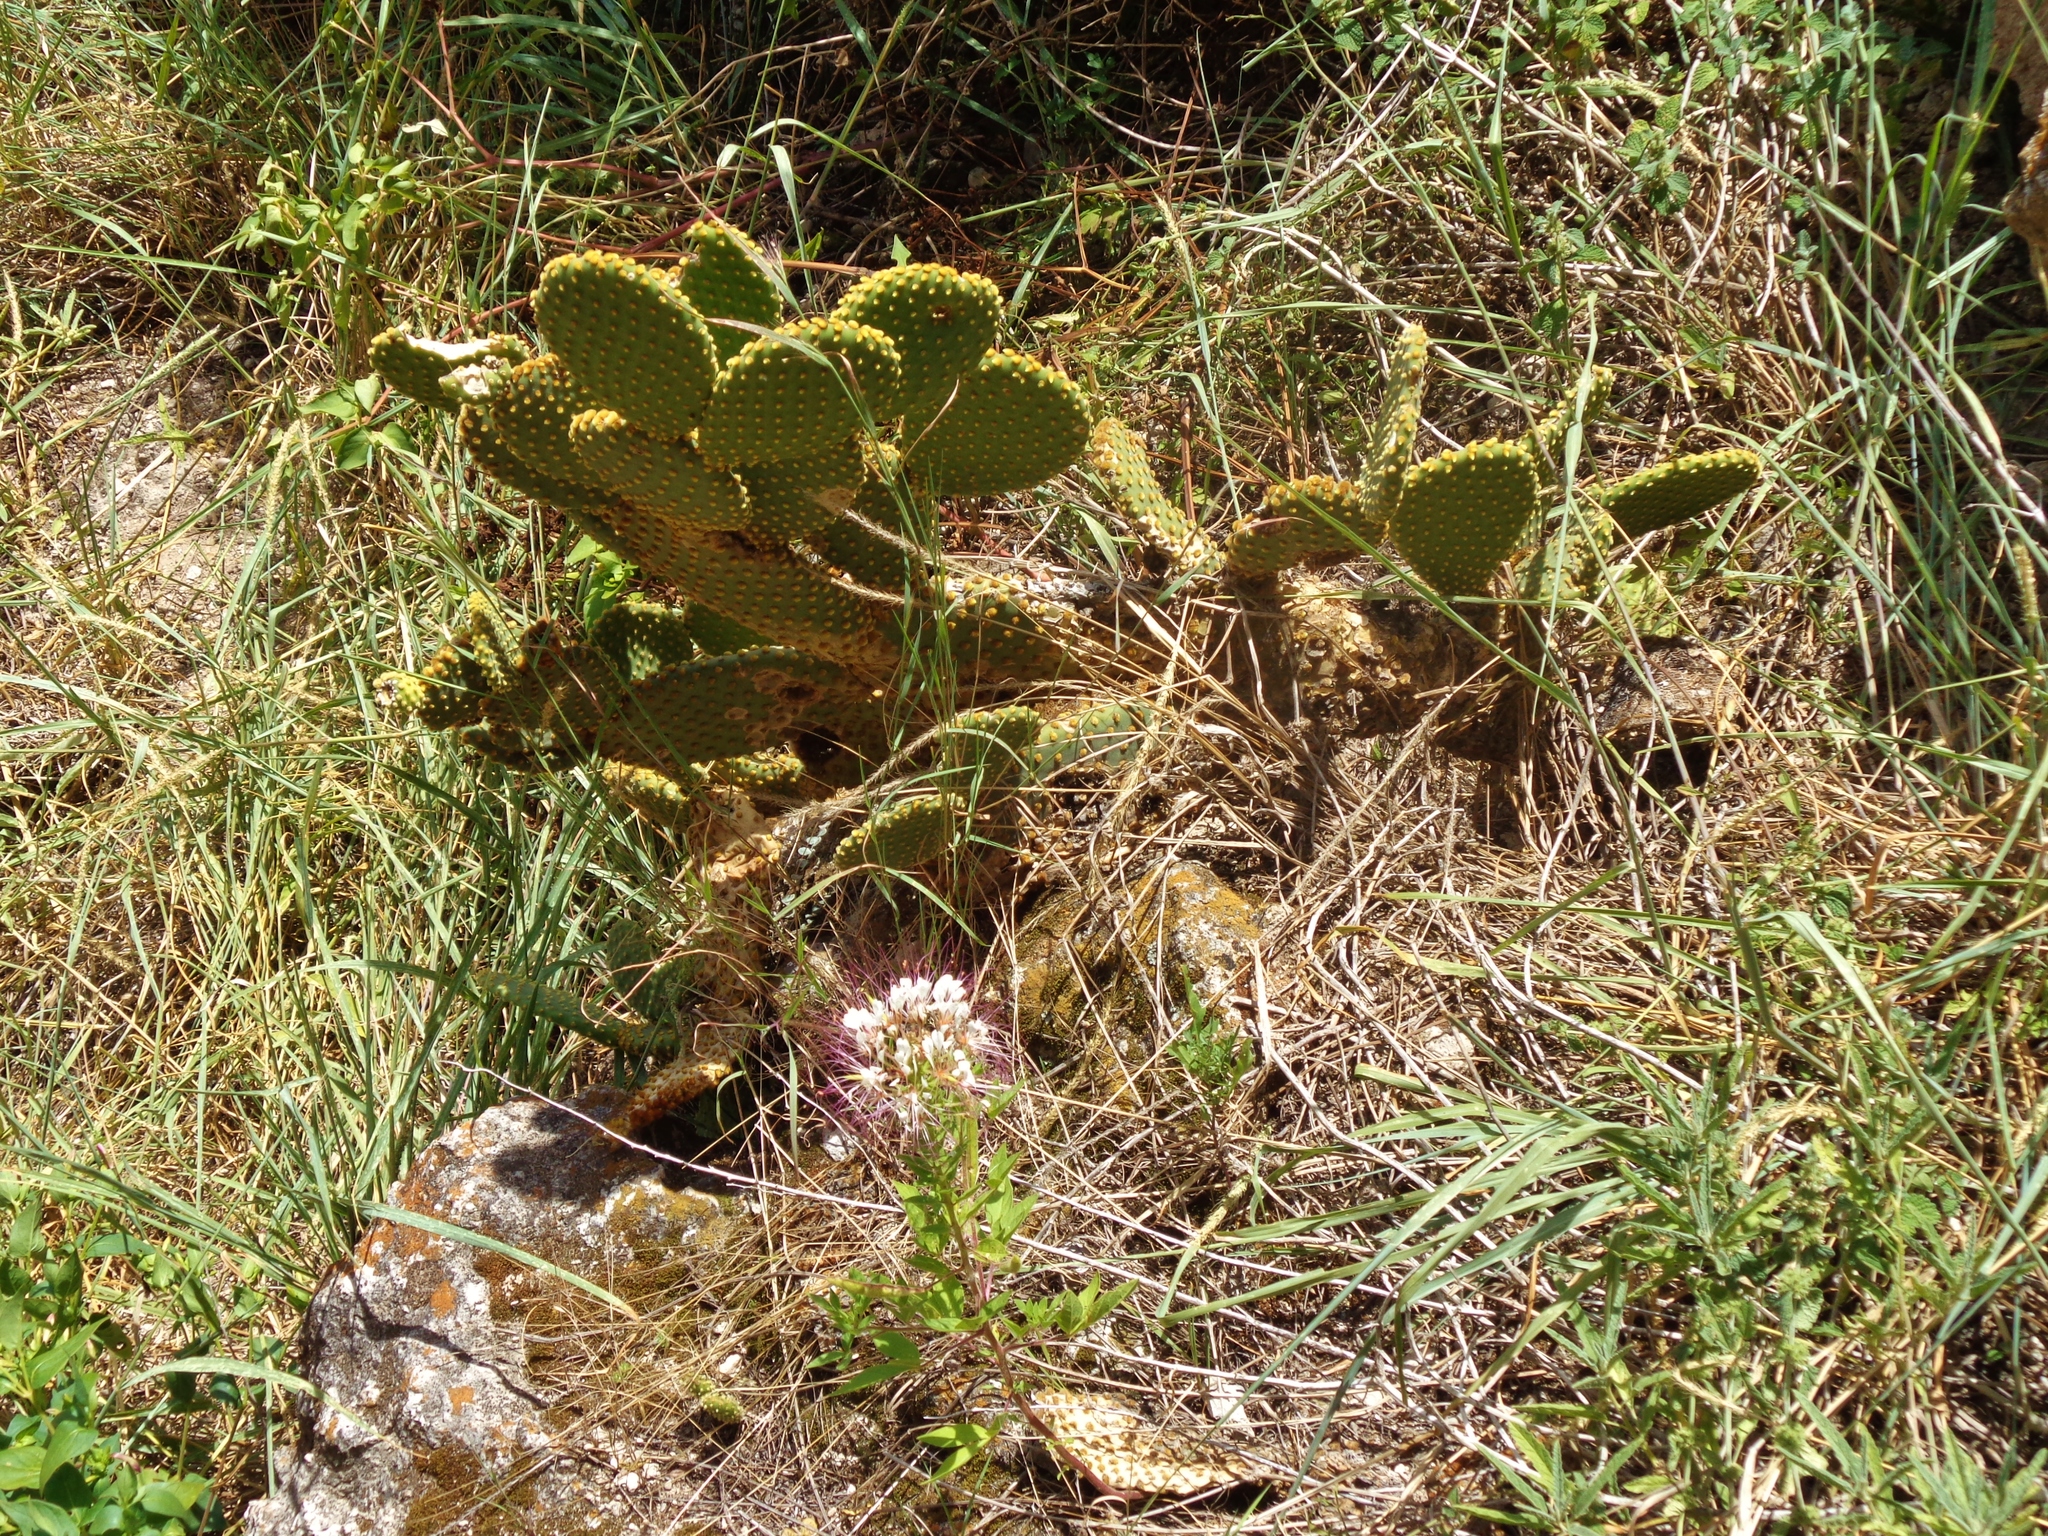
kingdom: Plantae
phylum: Tracheophyta
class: Magnoliopsida
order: Caryophyllales
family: Cactaceae
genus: Opuntia
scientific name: Opuntia microdasys
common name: Angel's-wings
